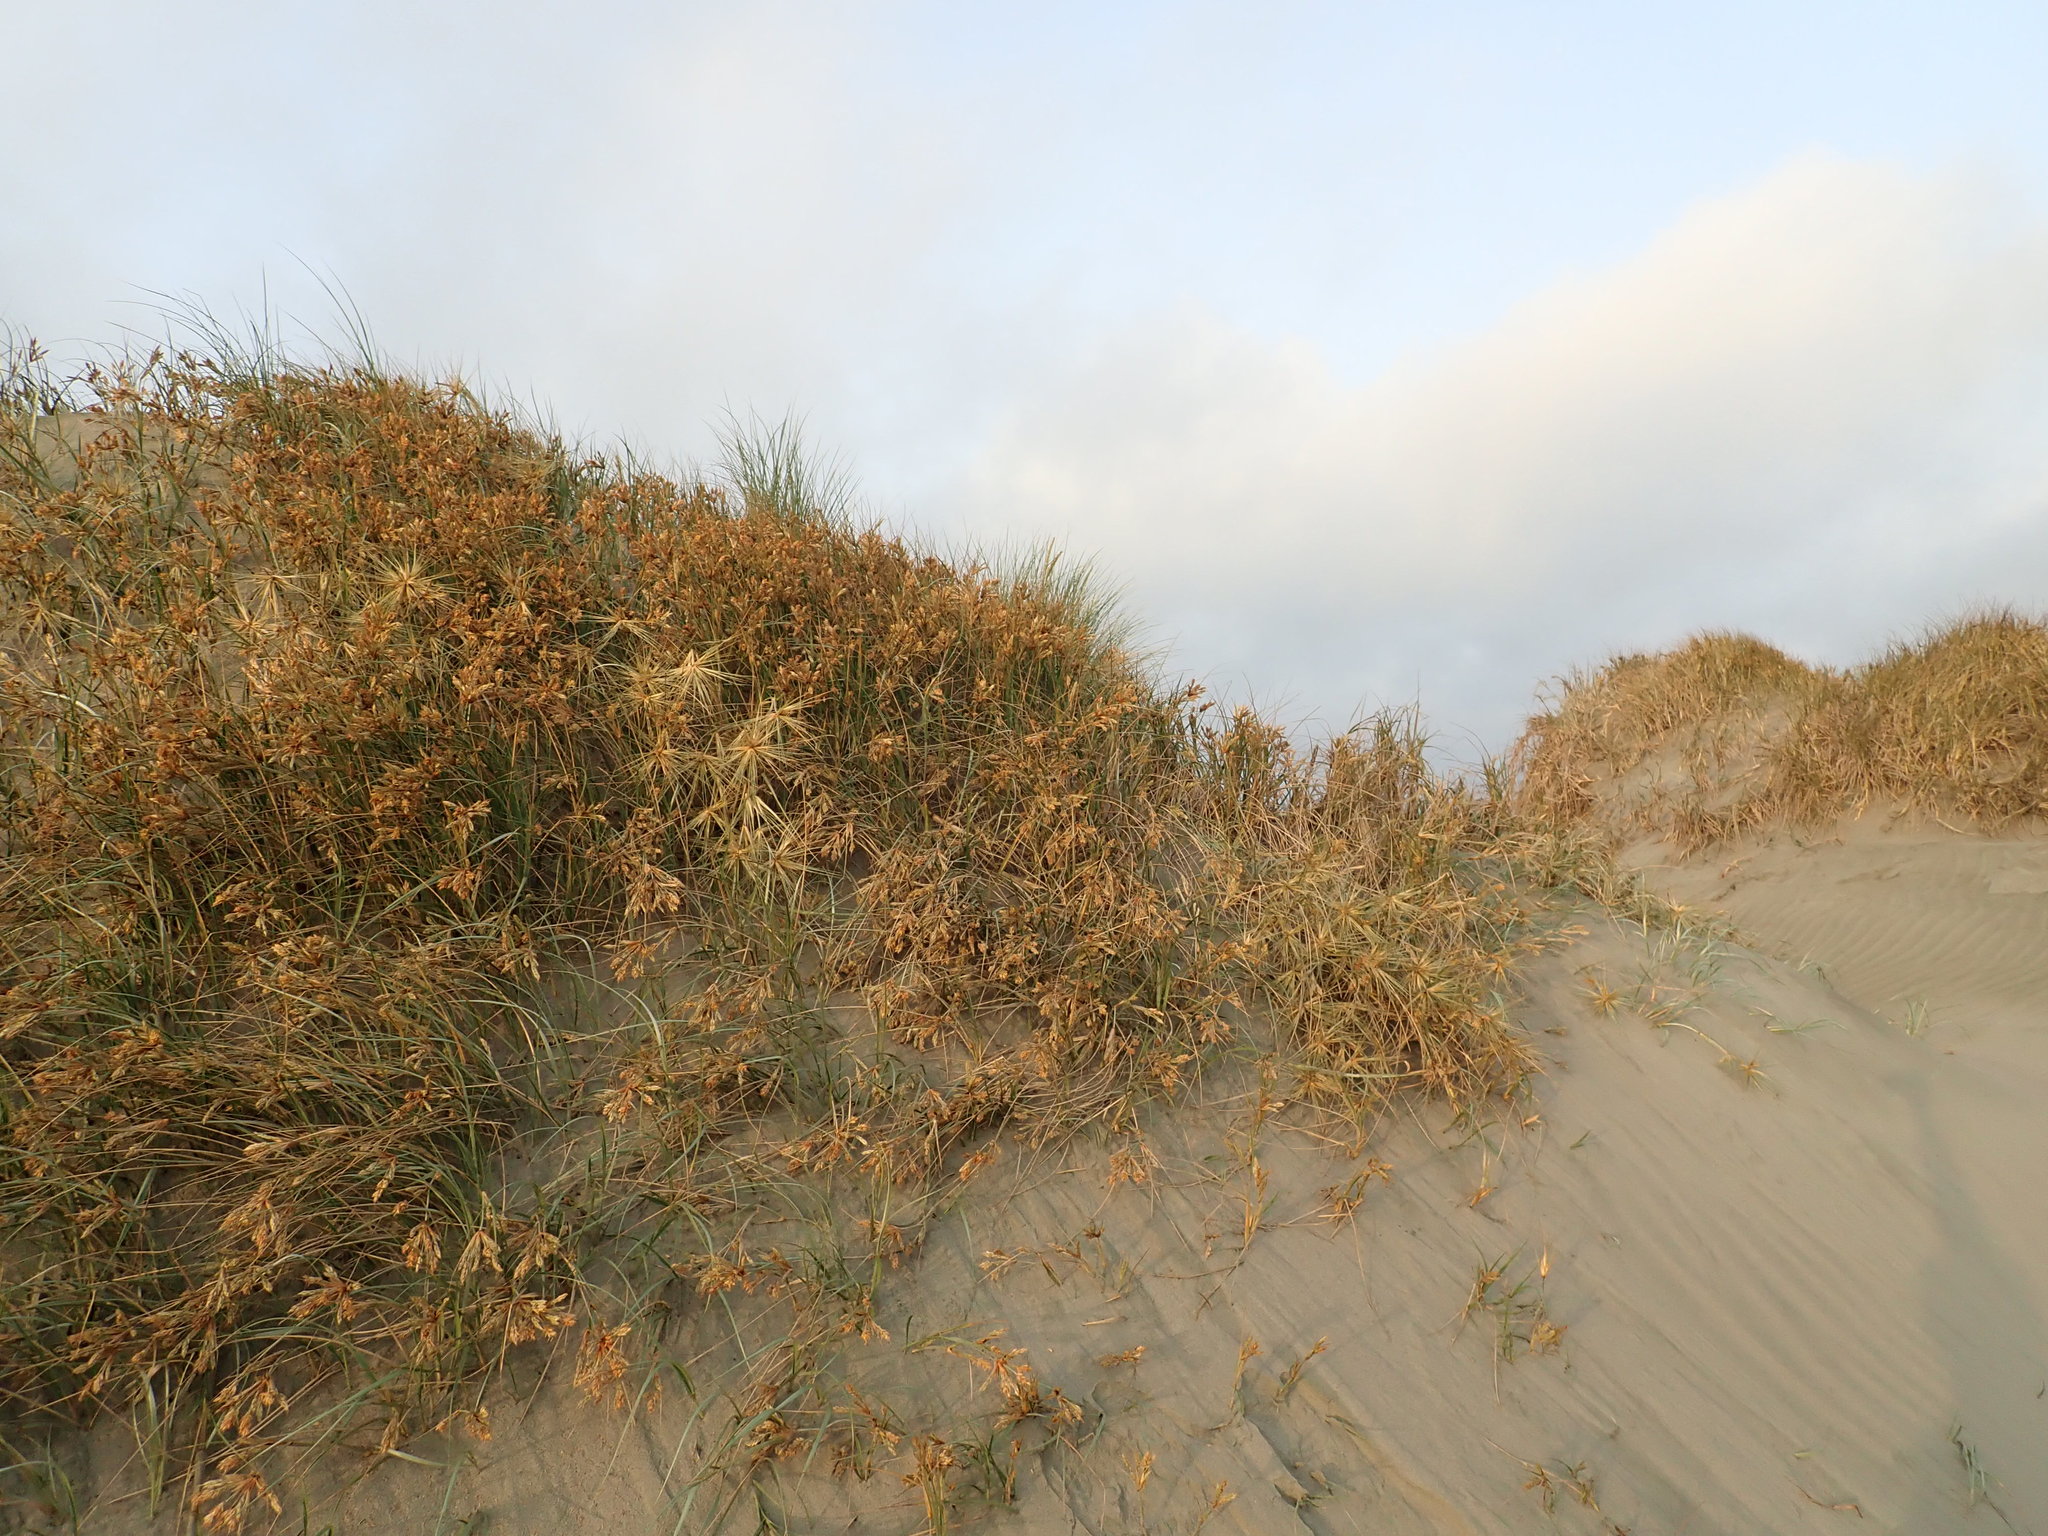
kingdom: Plantae
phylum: Tracheophyta
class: Liliopsida
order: Poales
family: Poaceae
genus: Spinifex
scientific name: Spinifex sericeus
